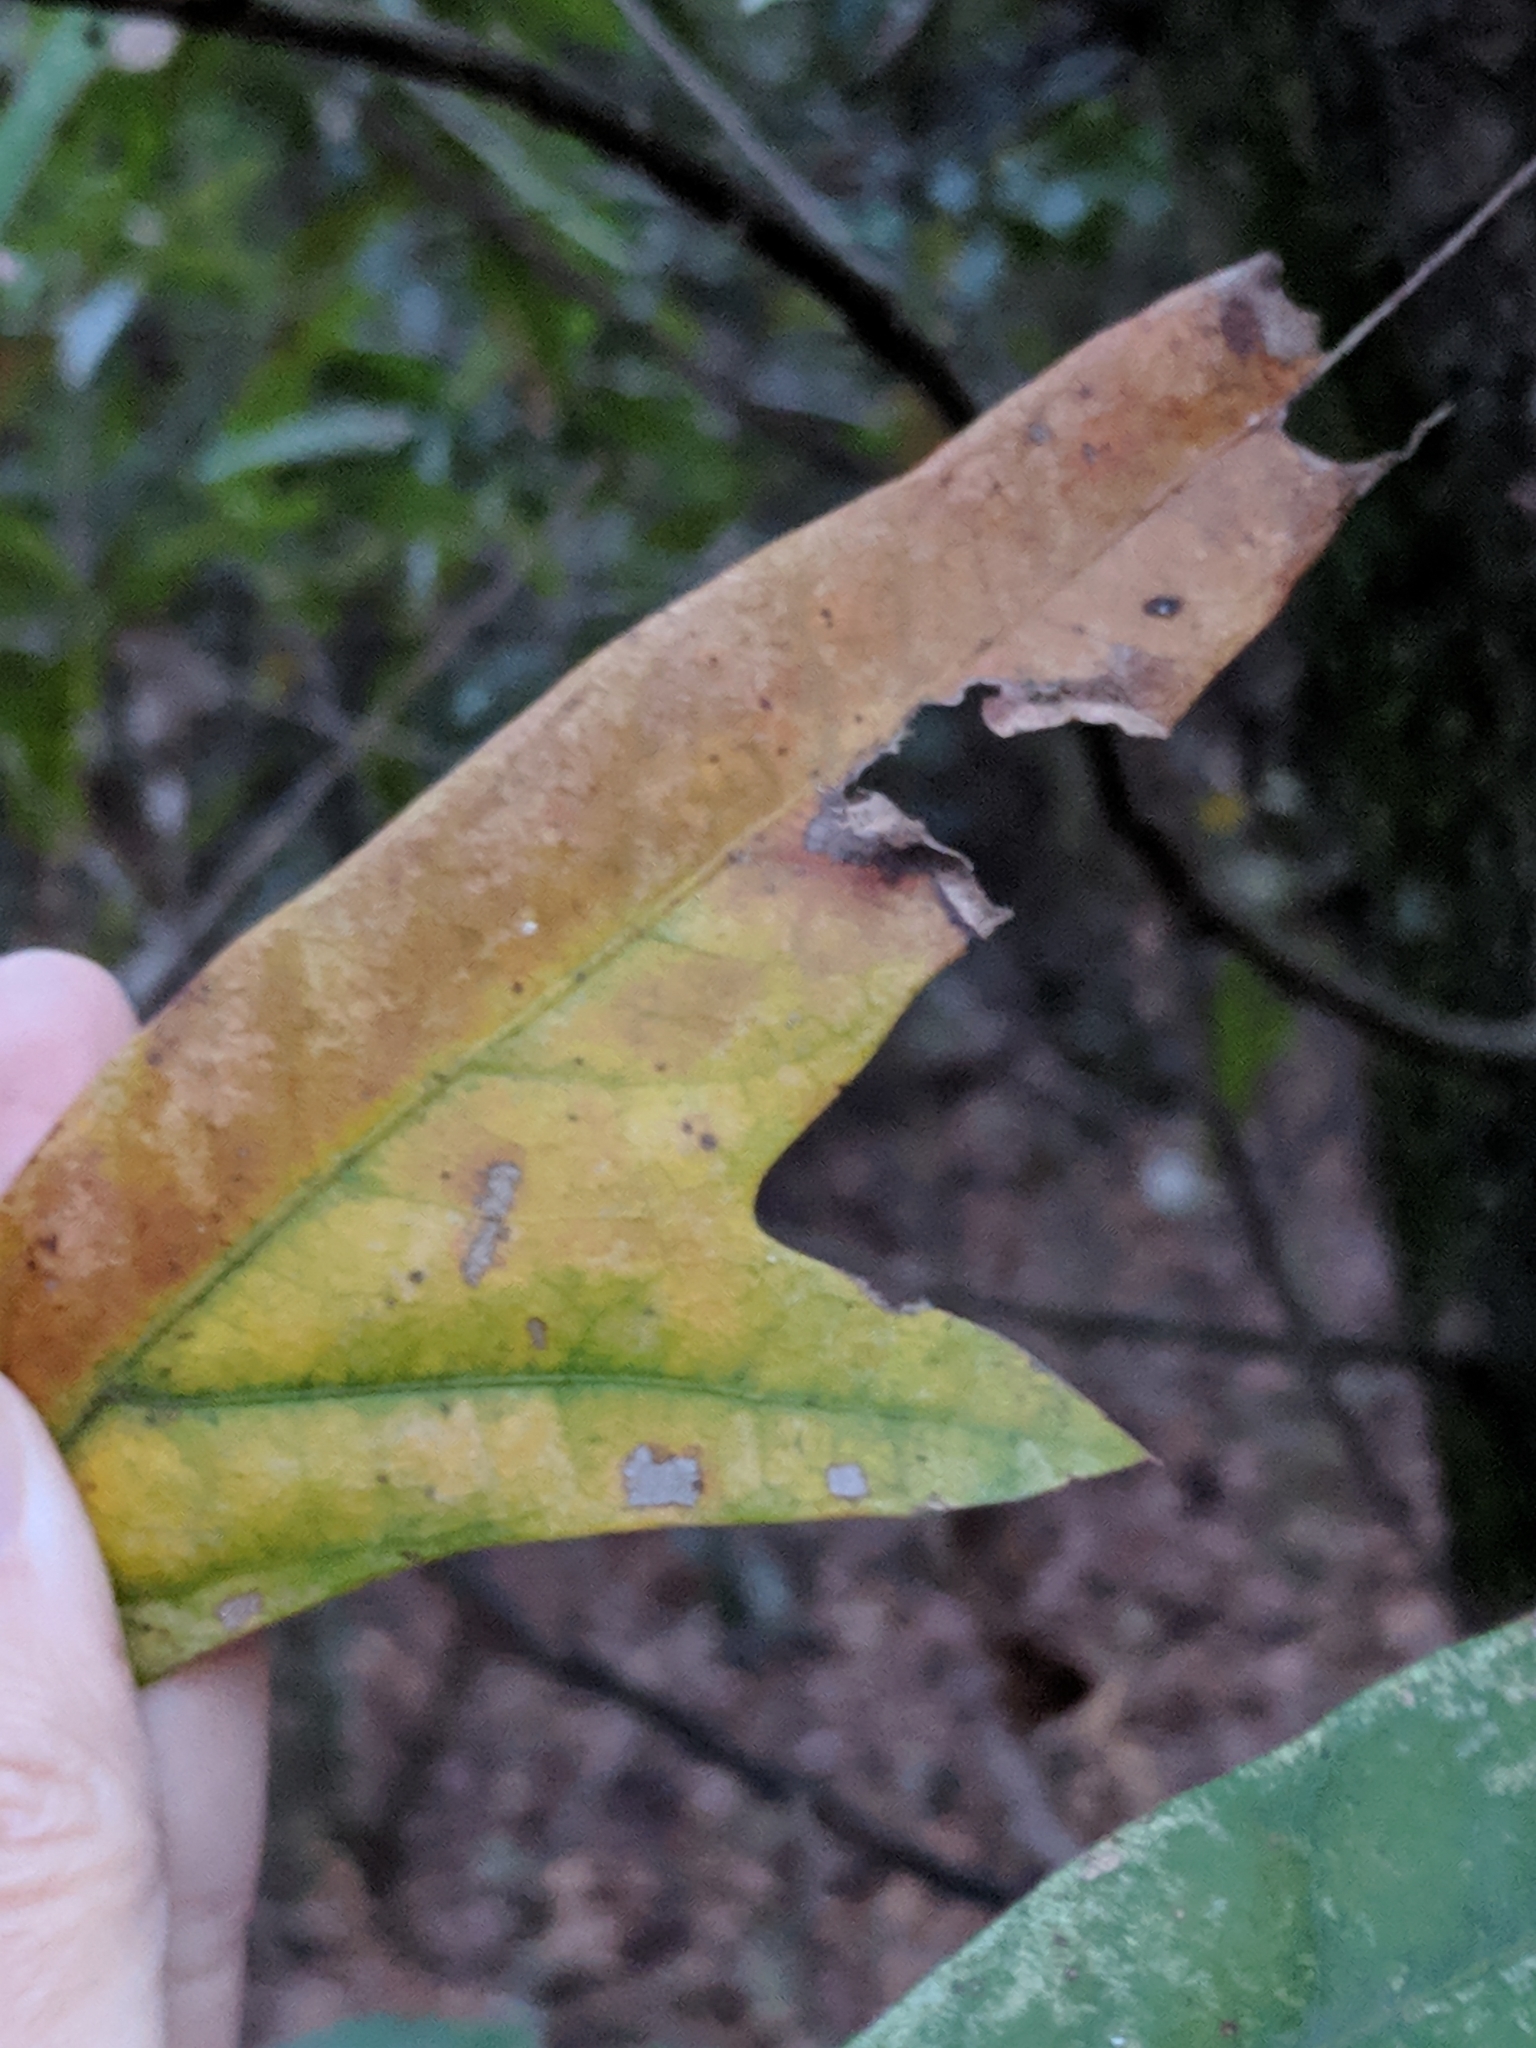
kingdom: Plantae
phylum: Tracheophyta
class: Magnoliopsida
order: Fagales
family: Fagaceae
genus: Quercus
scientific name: Quercus nigra
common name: Water oak
